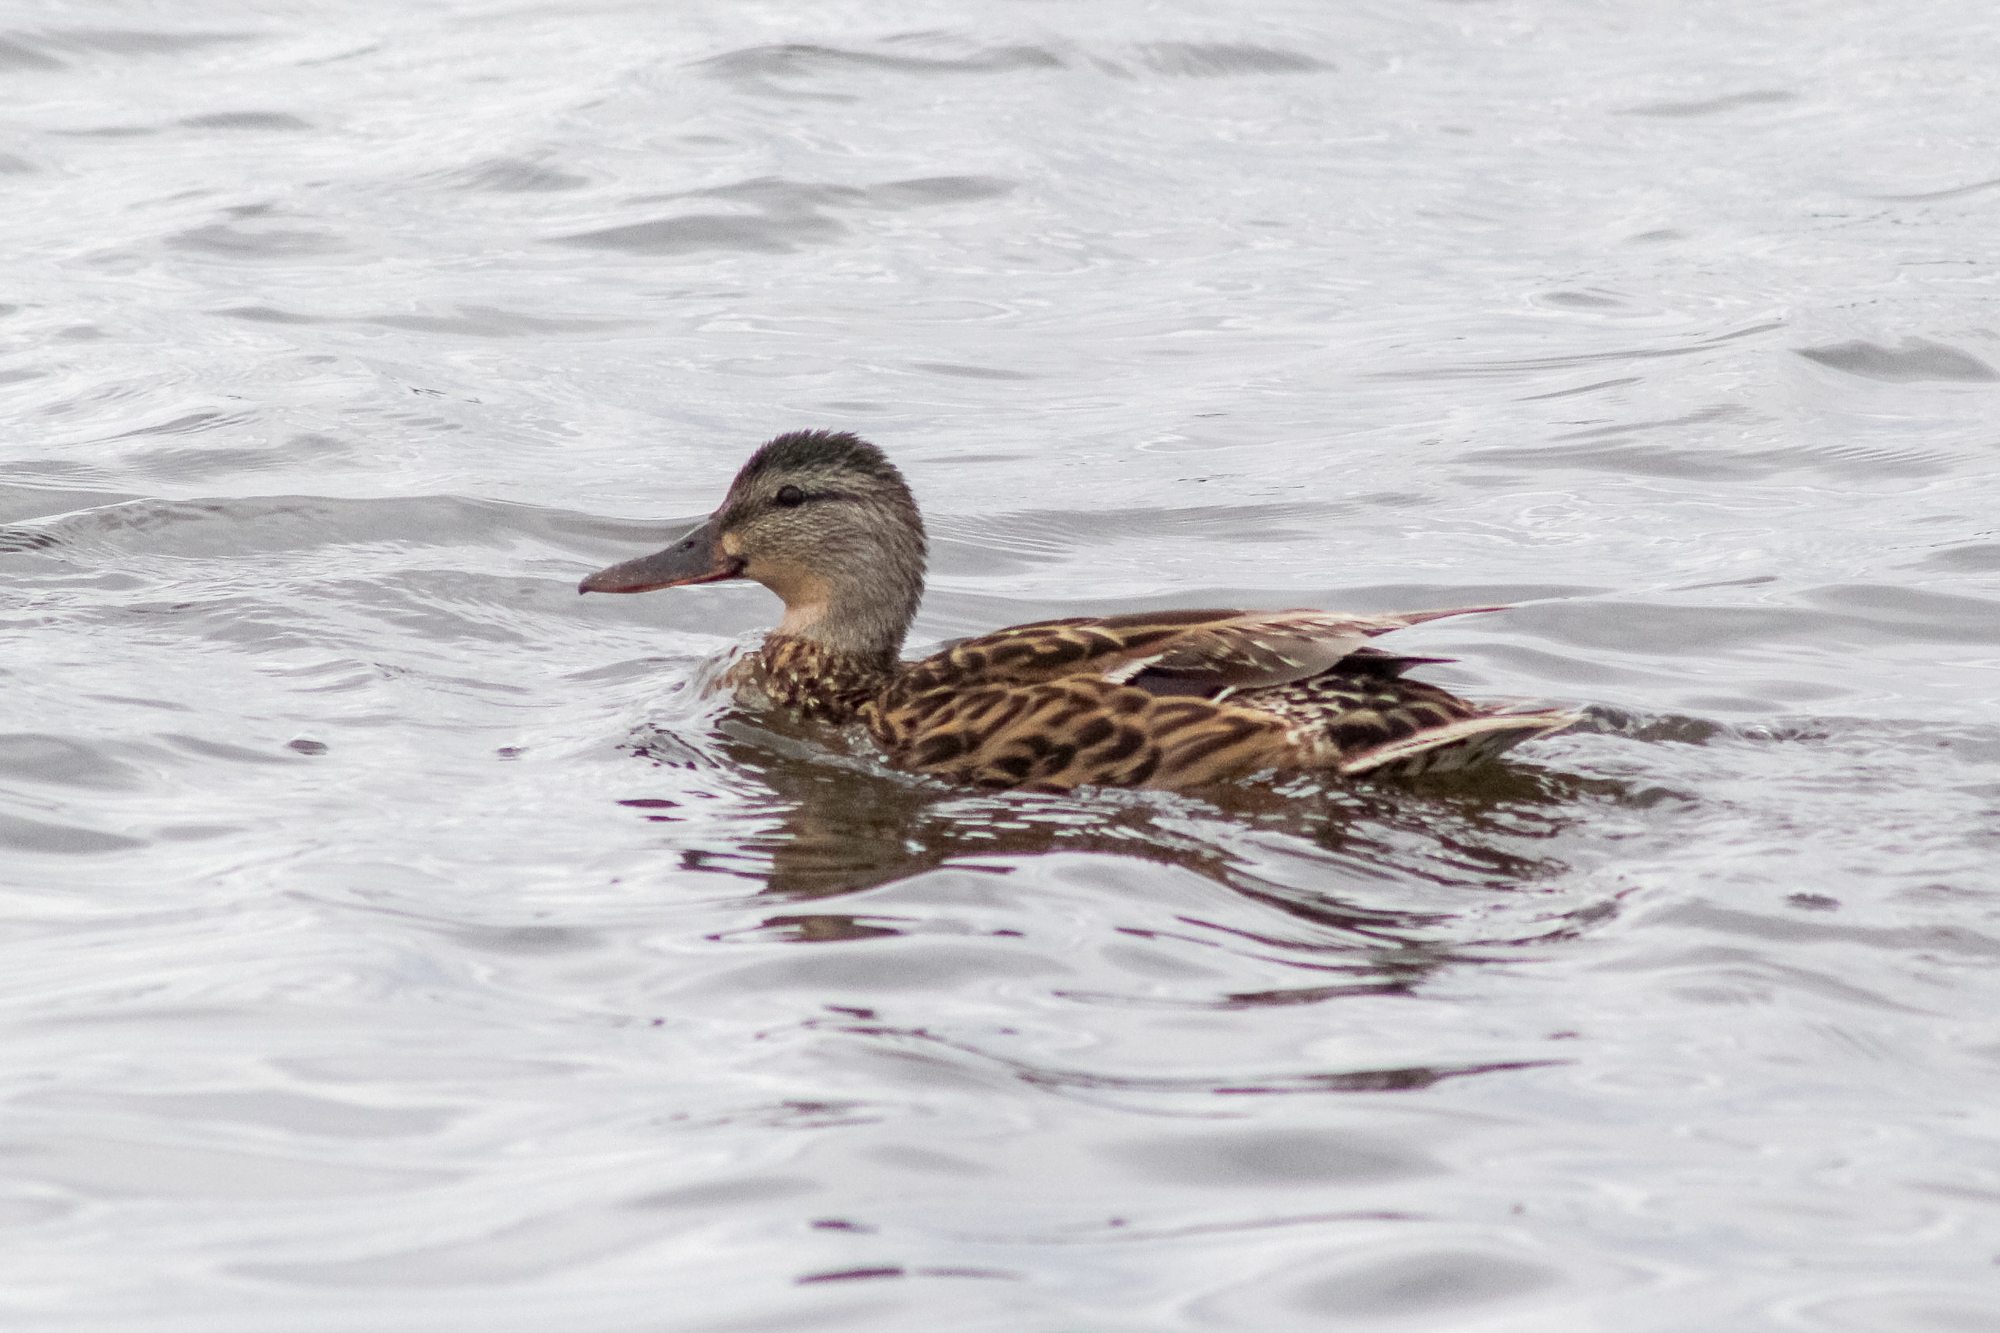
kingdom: Animalia
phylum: Chordata
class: Aves
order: Anseriformes
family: Anatidae
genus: Anas
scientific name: Anas platyrhynchos
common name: Mallard
